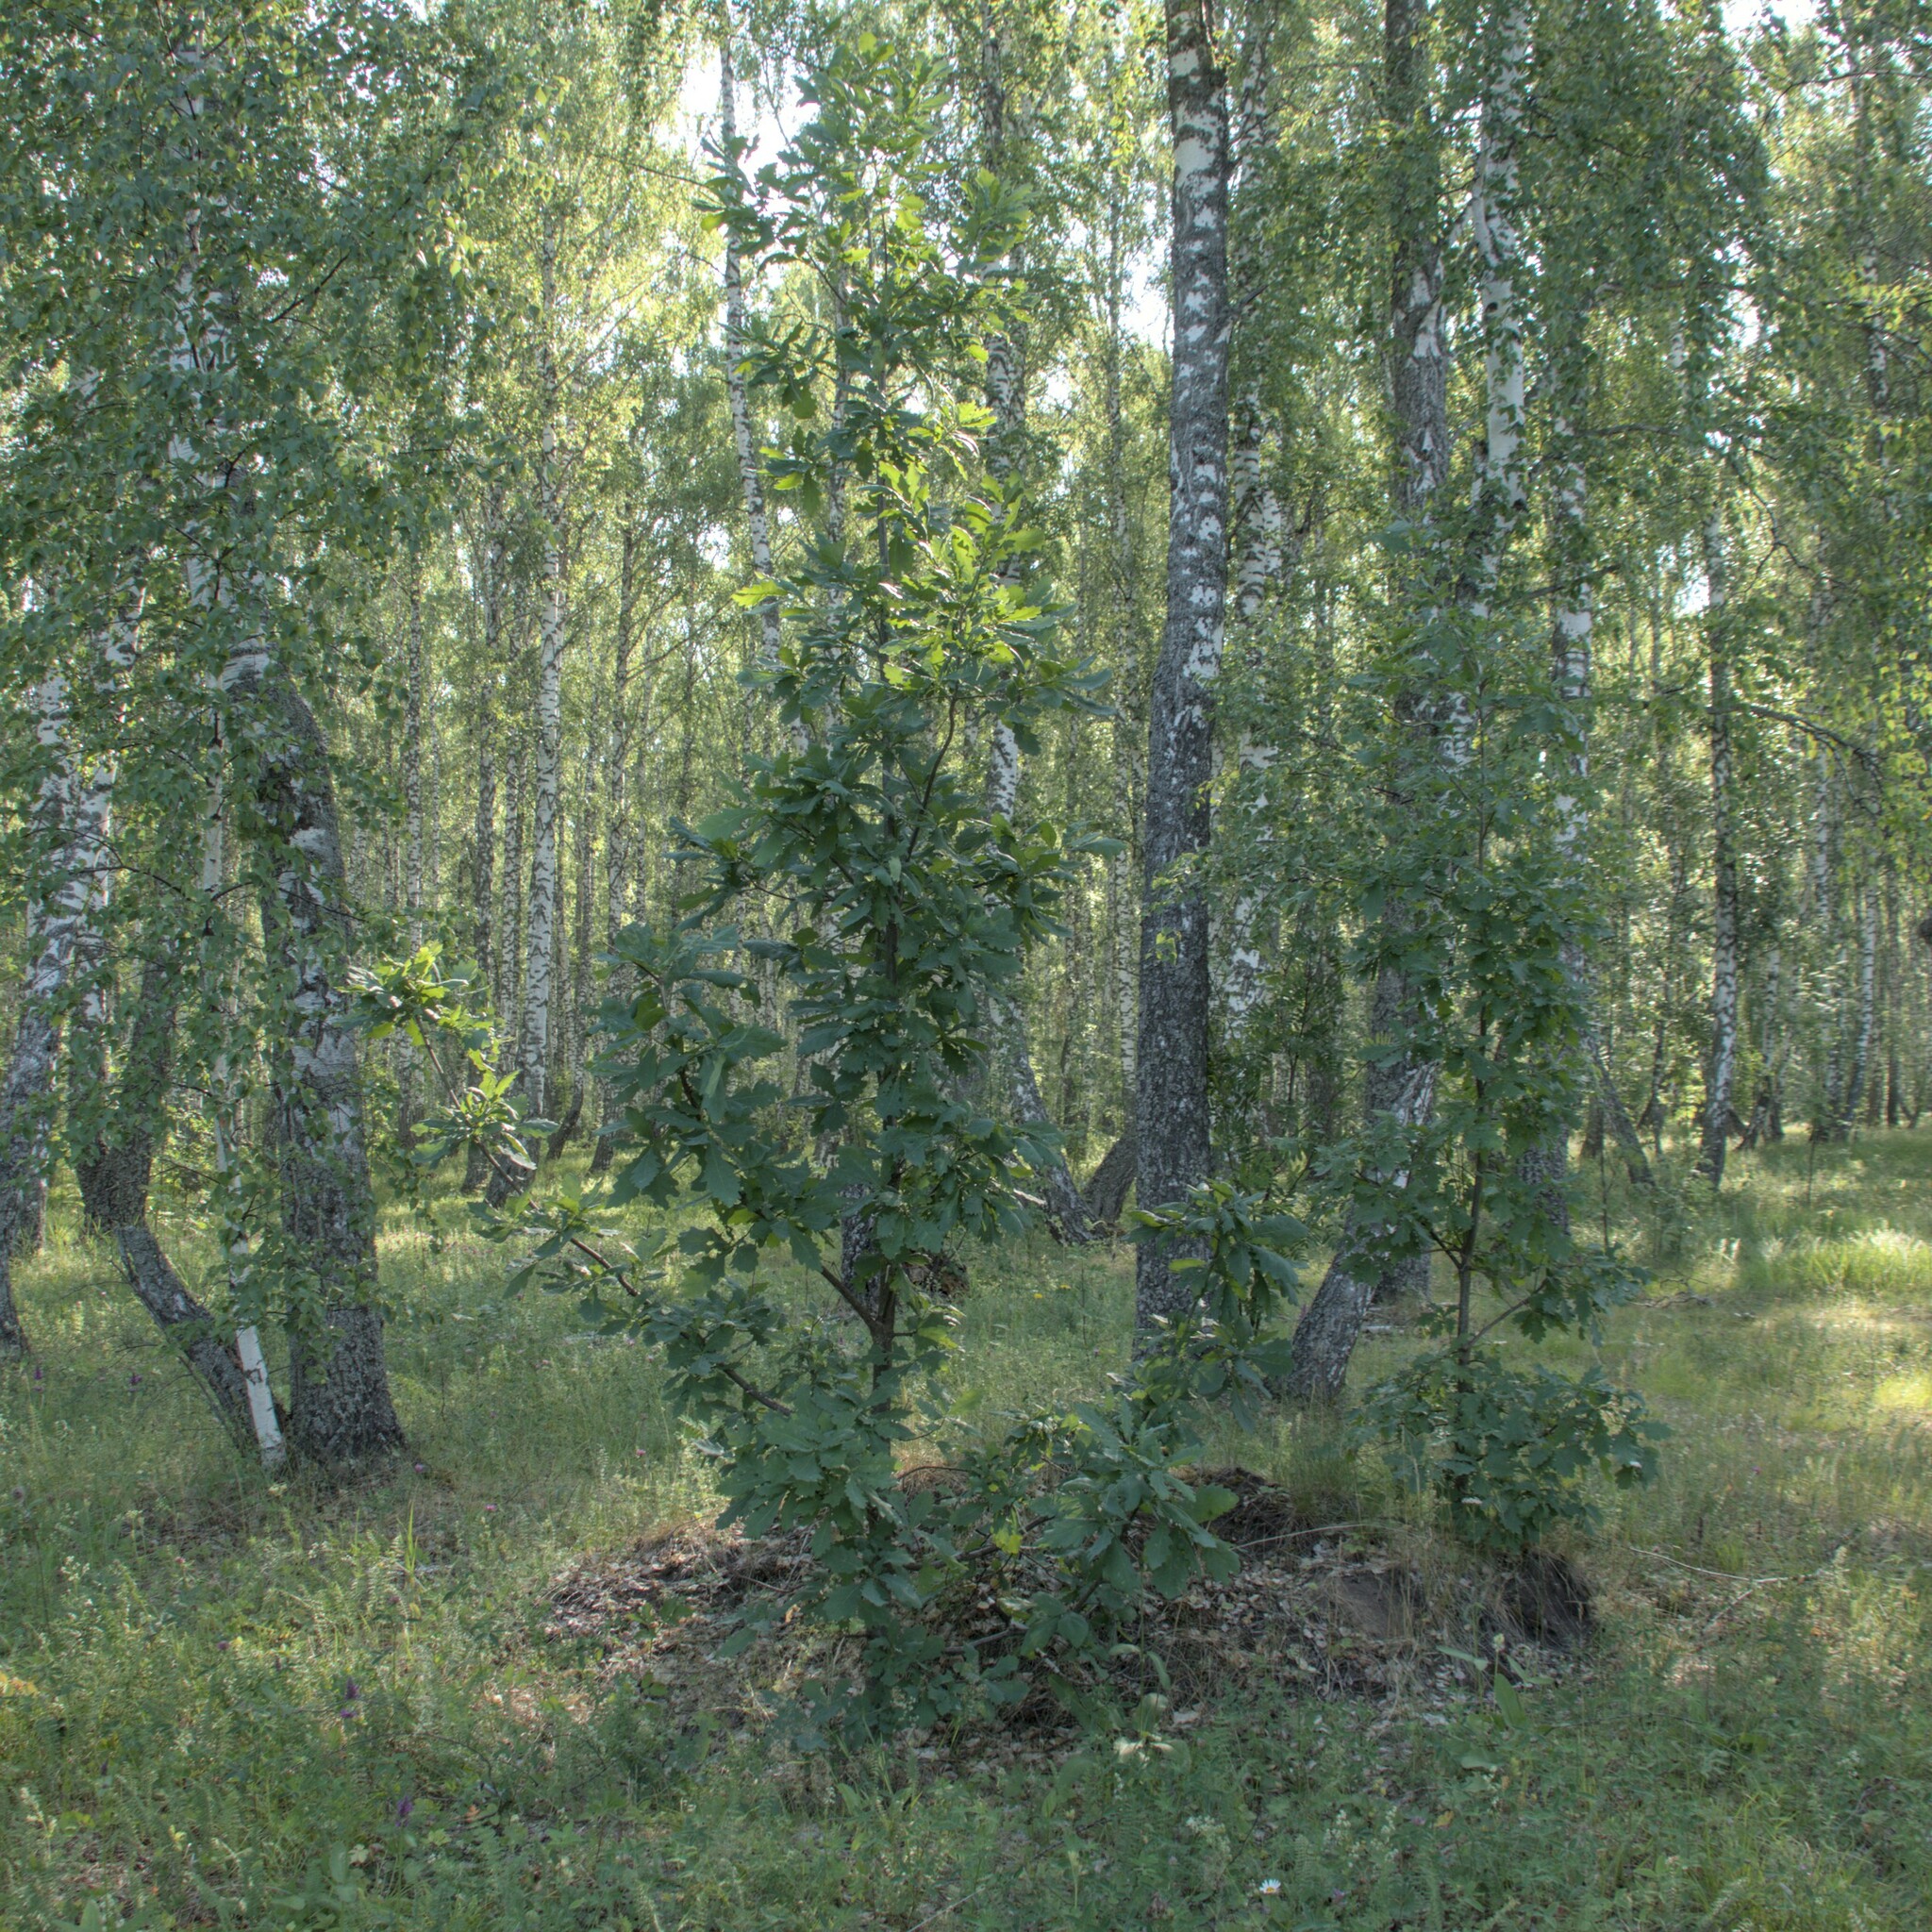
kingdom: Plantae
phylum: Tracheophyta
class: Magnoliopsida
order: Fagales
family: Fagaceae
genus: Quercus
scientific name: Quercus robur
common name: Pedunculate oak
